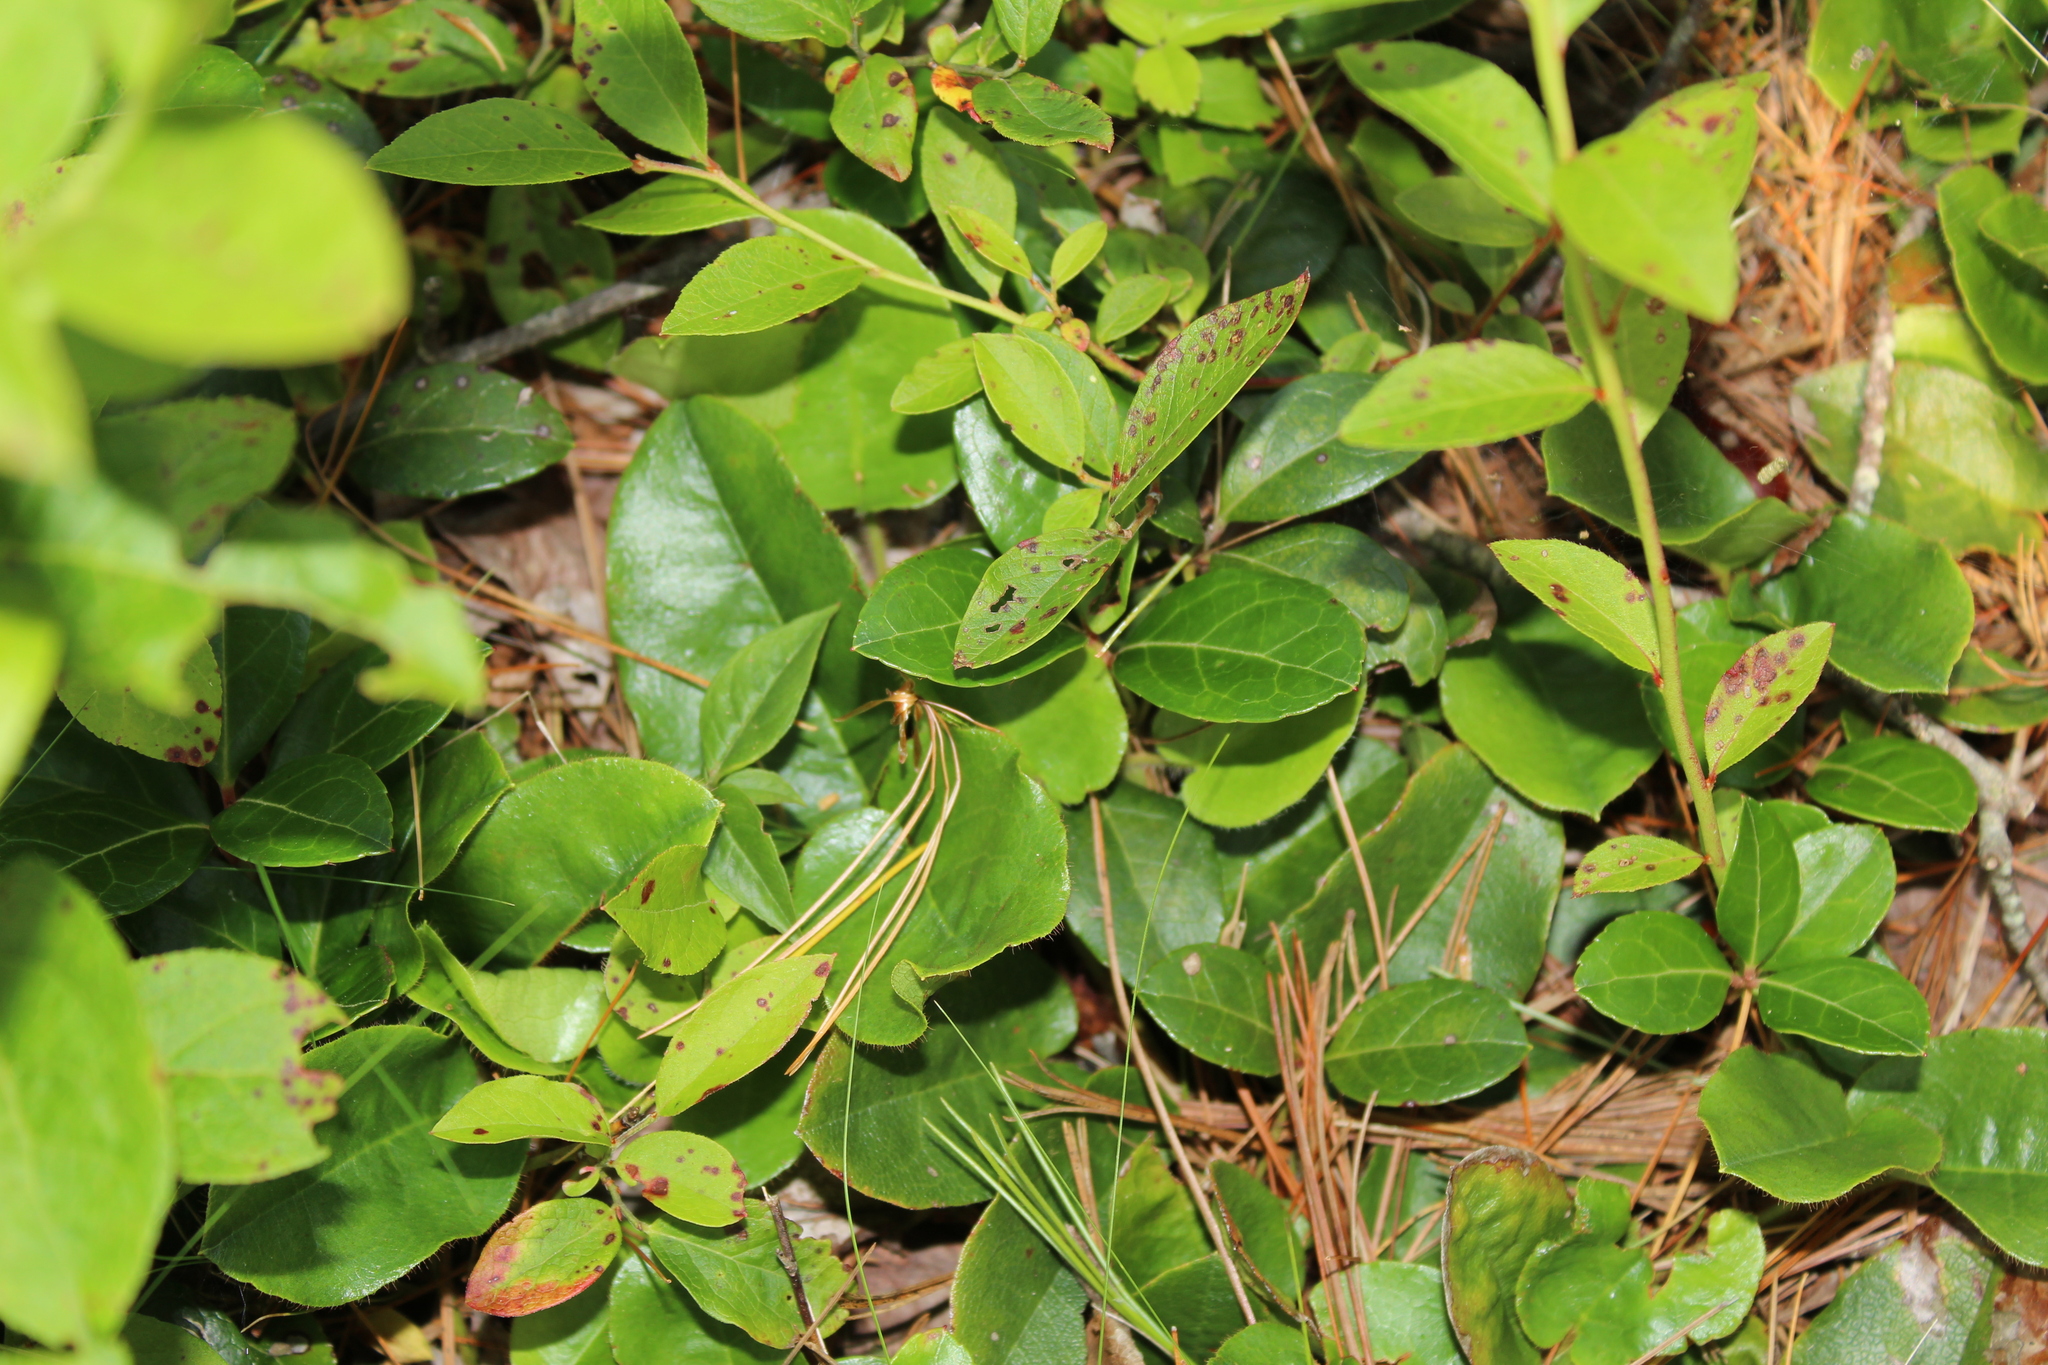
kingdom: Plantae
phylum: Tracheophyta
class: Magnoliopsida
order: Ericales
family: Ericaceae
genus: Epigaea
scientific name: Epigaea repens
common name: Gravelroot
